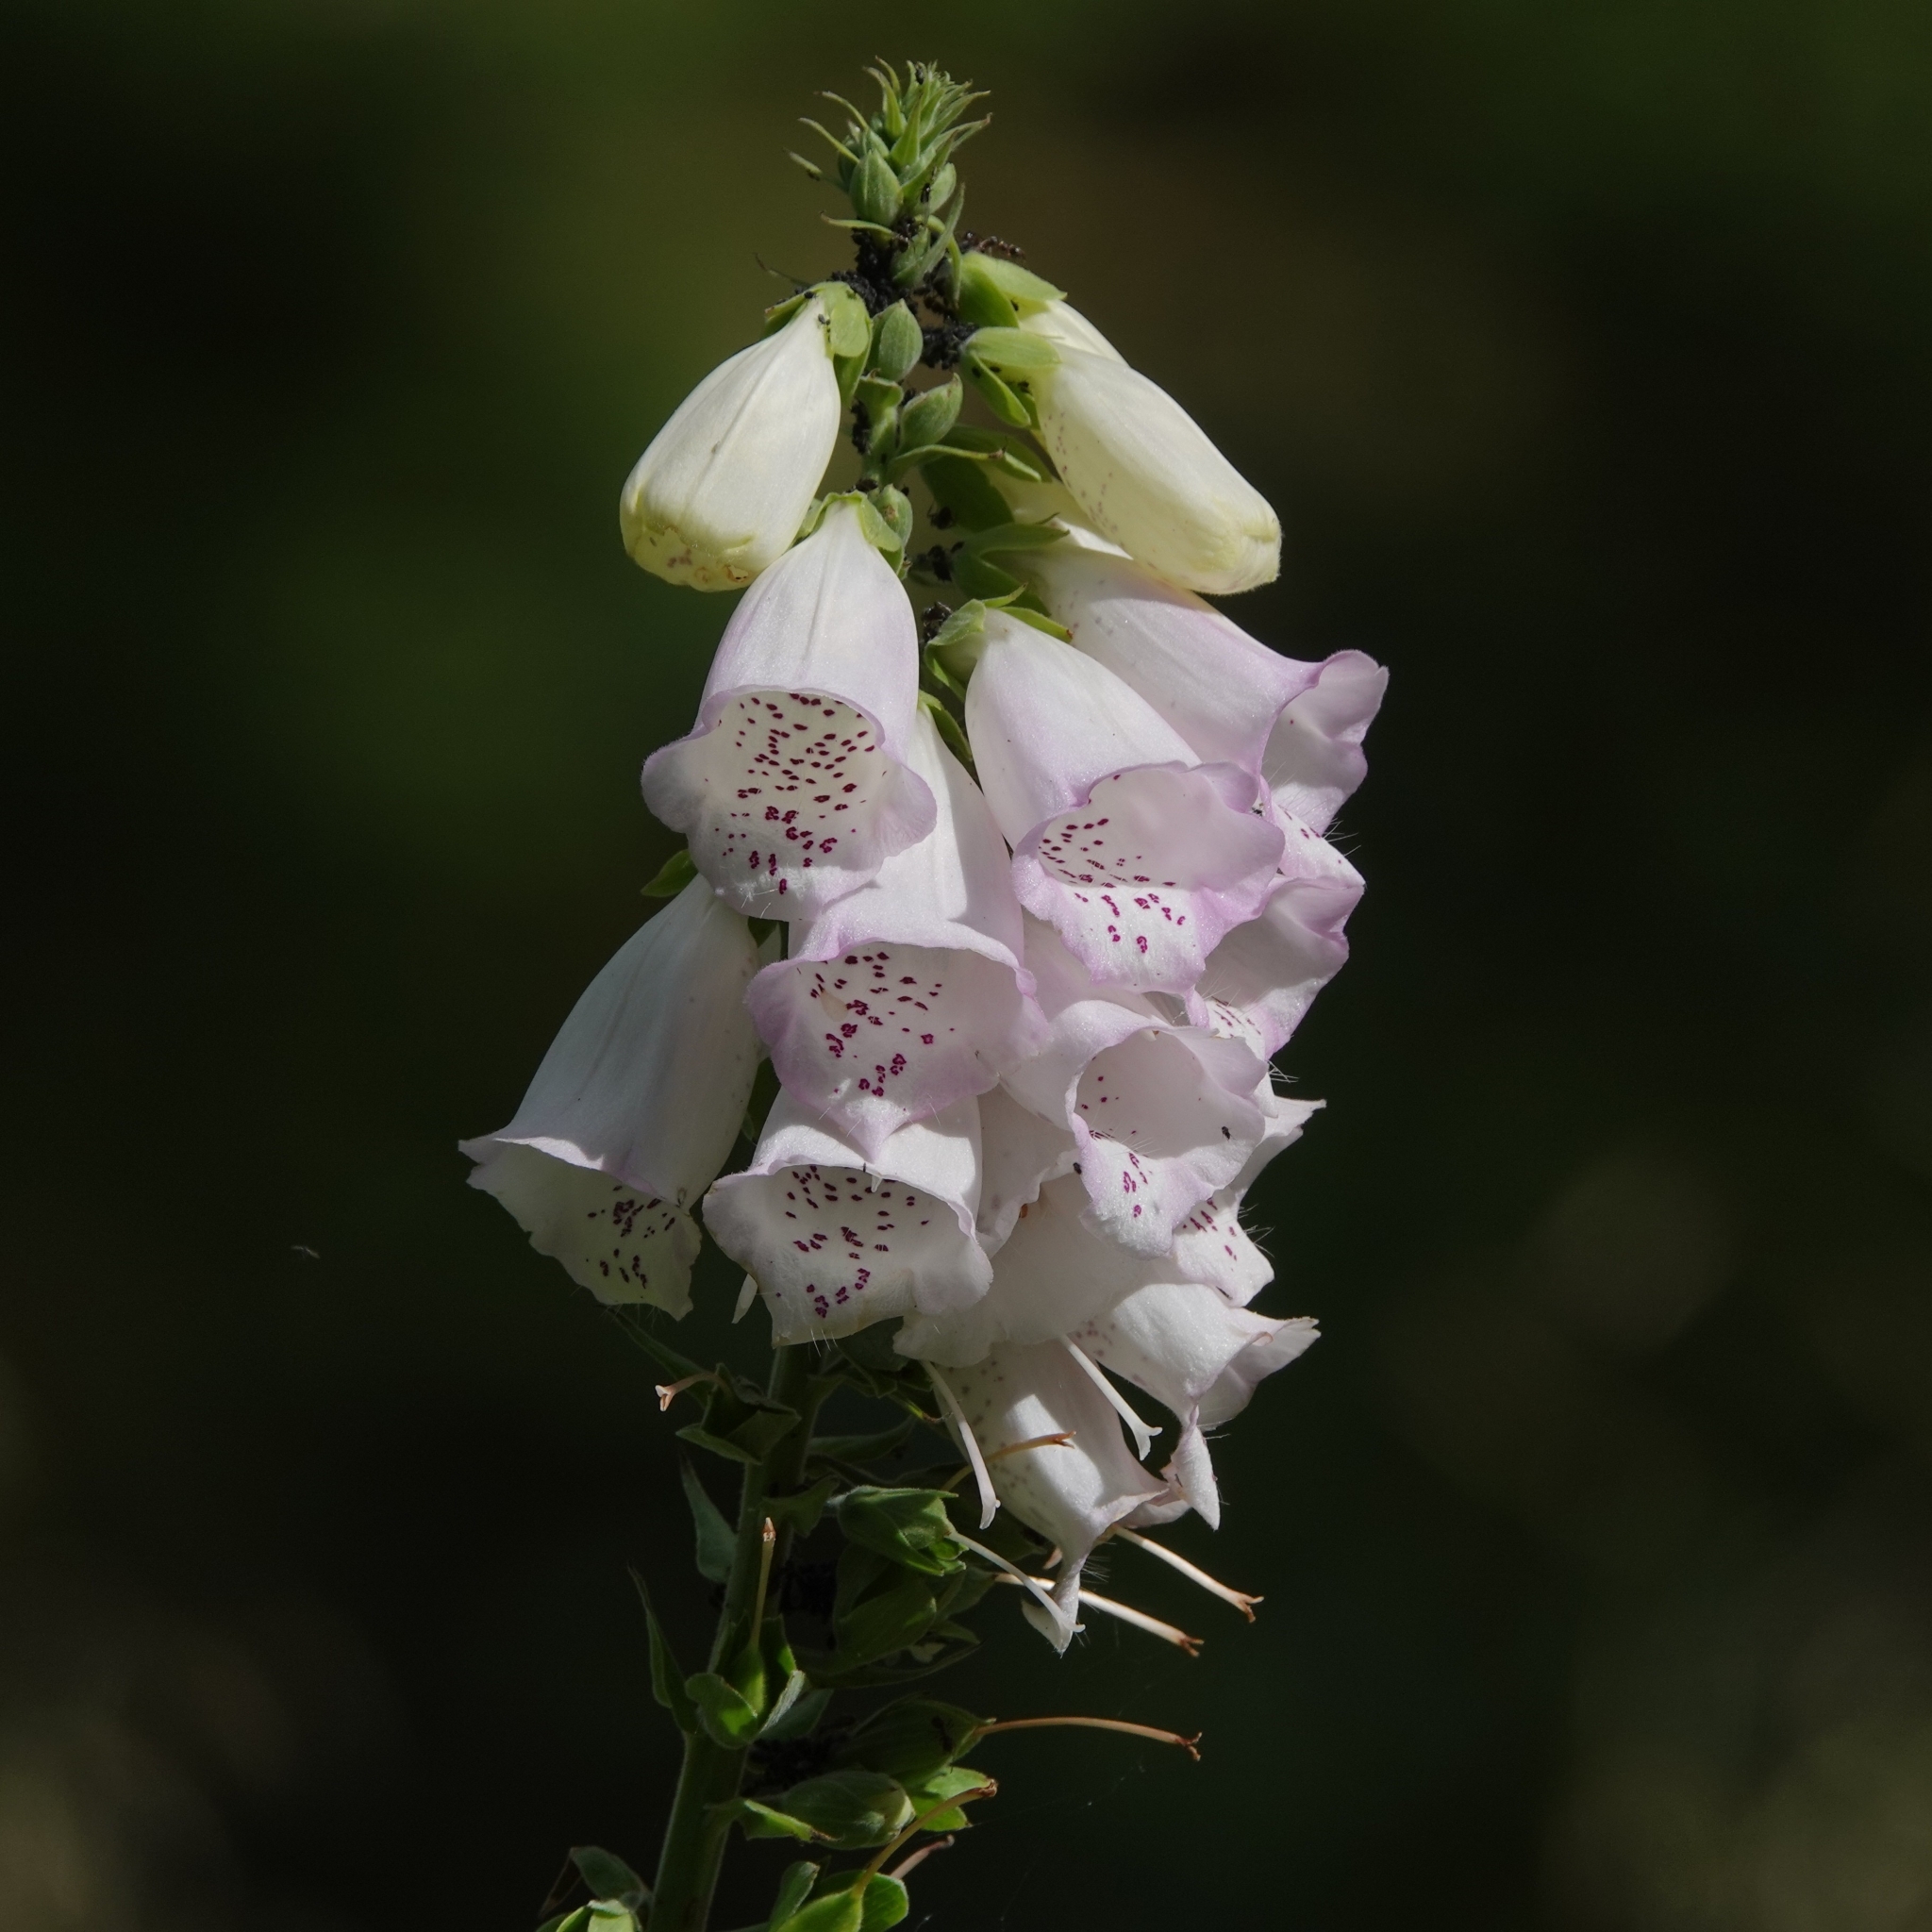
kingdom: Plantae
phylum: Tracheophyta
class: Magnoliopsida
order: Lamiales
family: Plantaginaceae
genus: Digitalis
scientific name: Digitalis purpurea
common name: Foxglove
